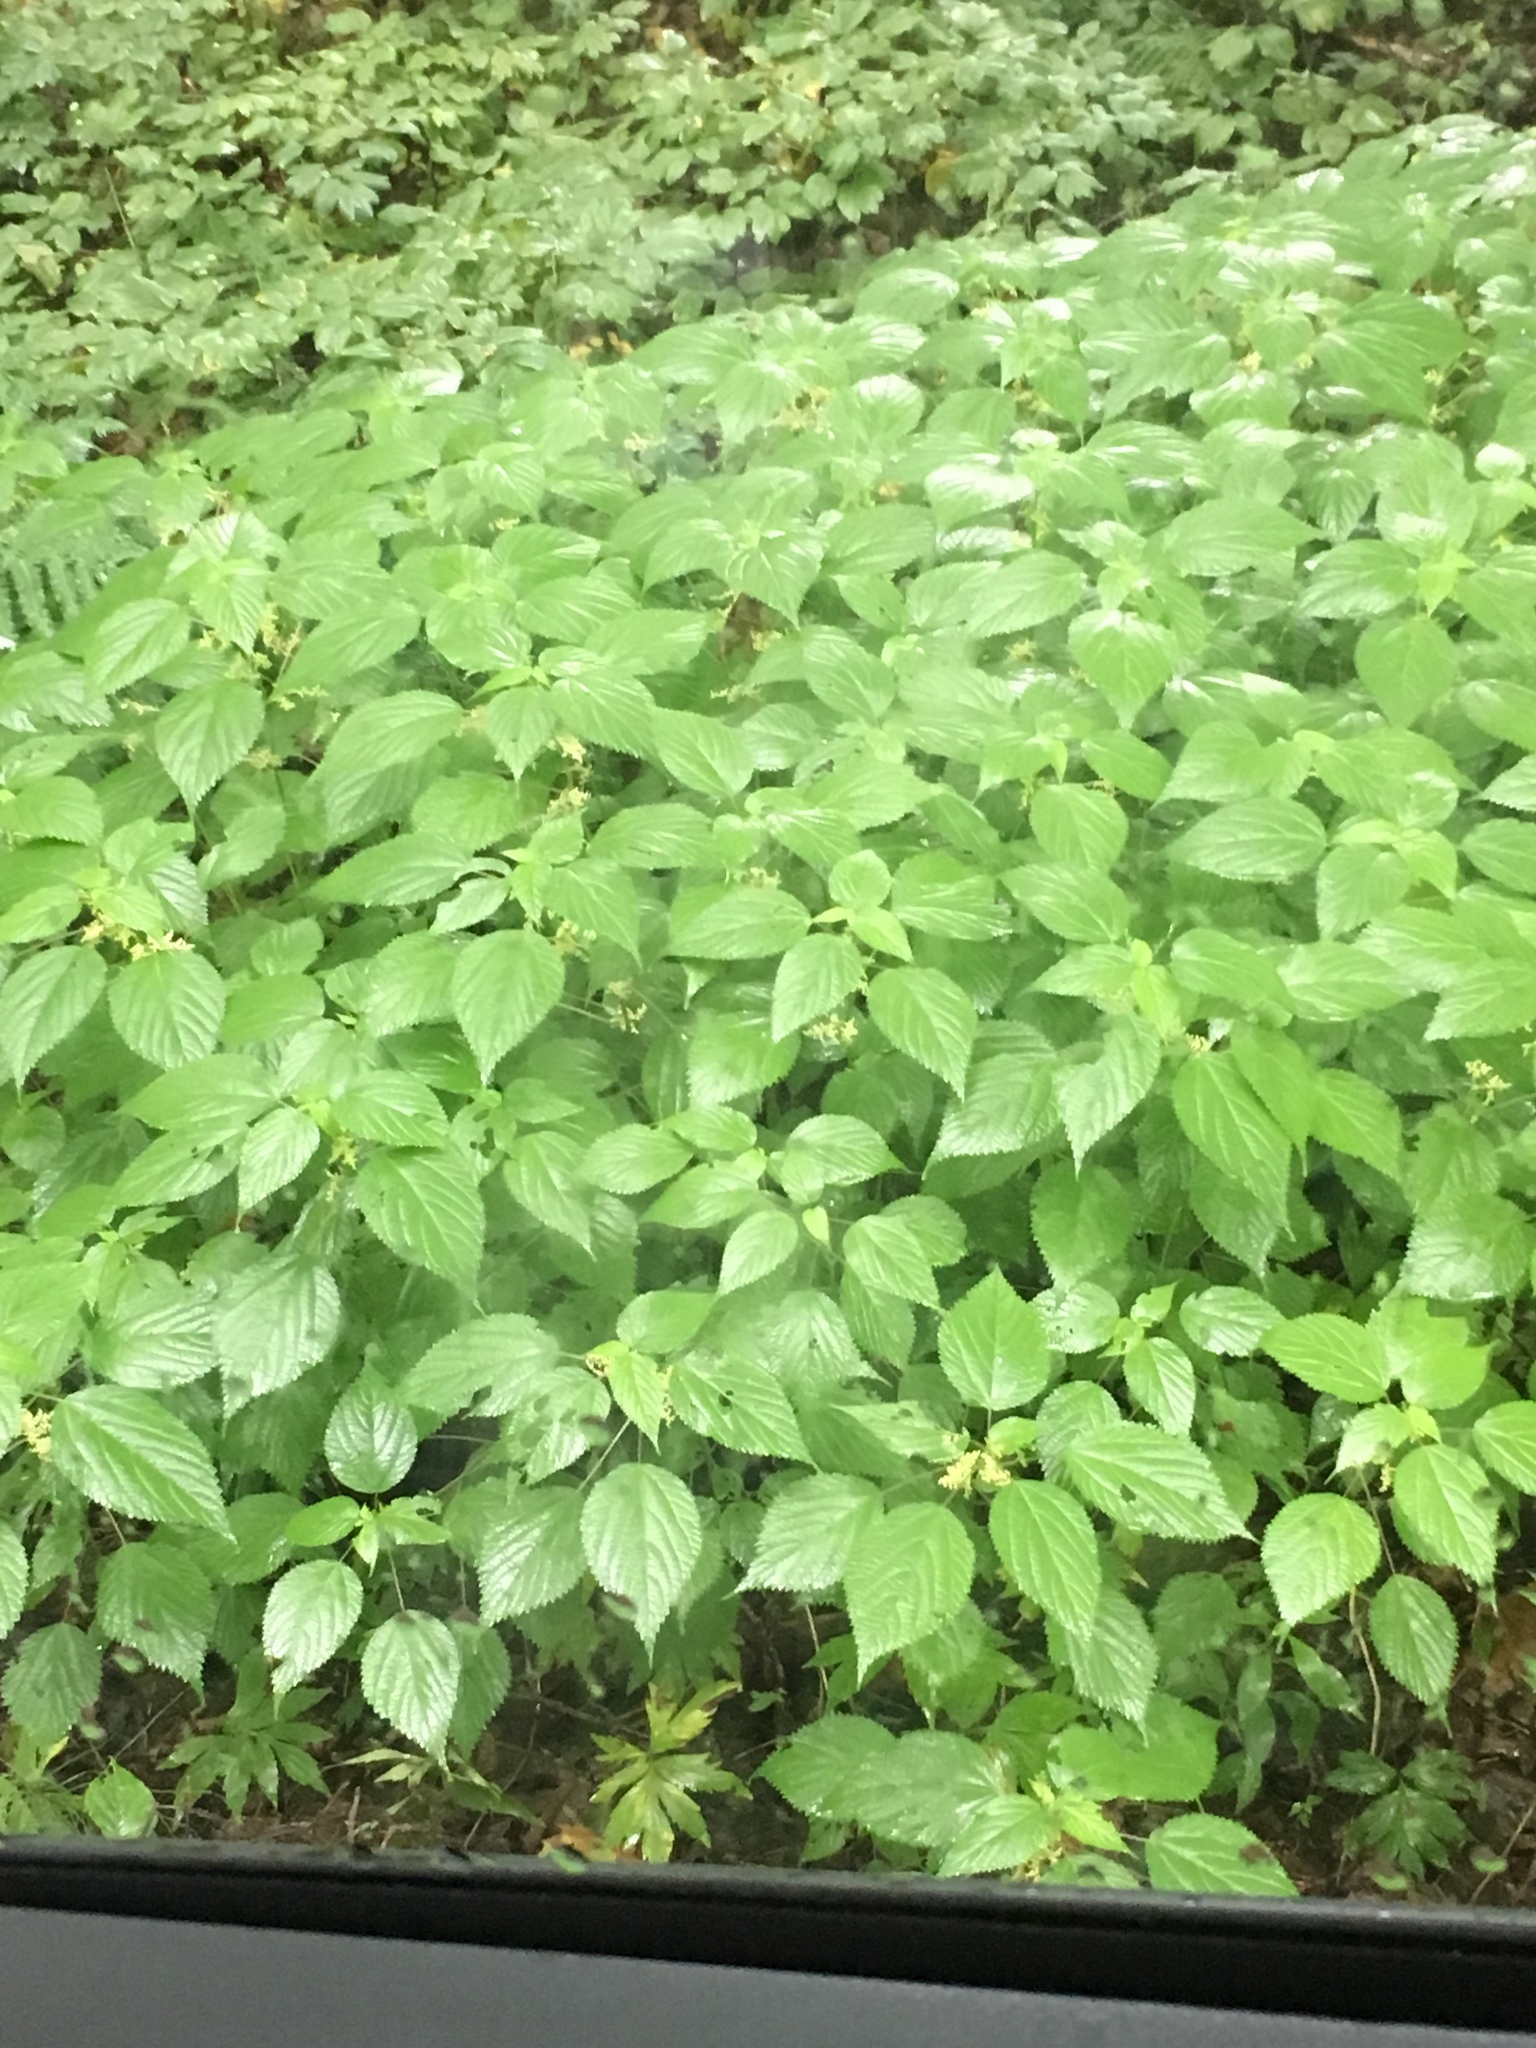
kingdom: Plantae
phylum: Tracheophyta
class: Magnoliopsida
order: Rosales
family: Urticaceae
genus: Laportea
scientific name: Laportea canadensis
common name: Canada nettle
